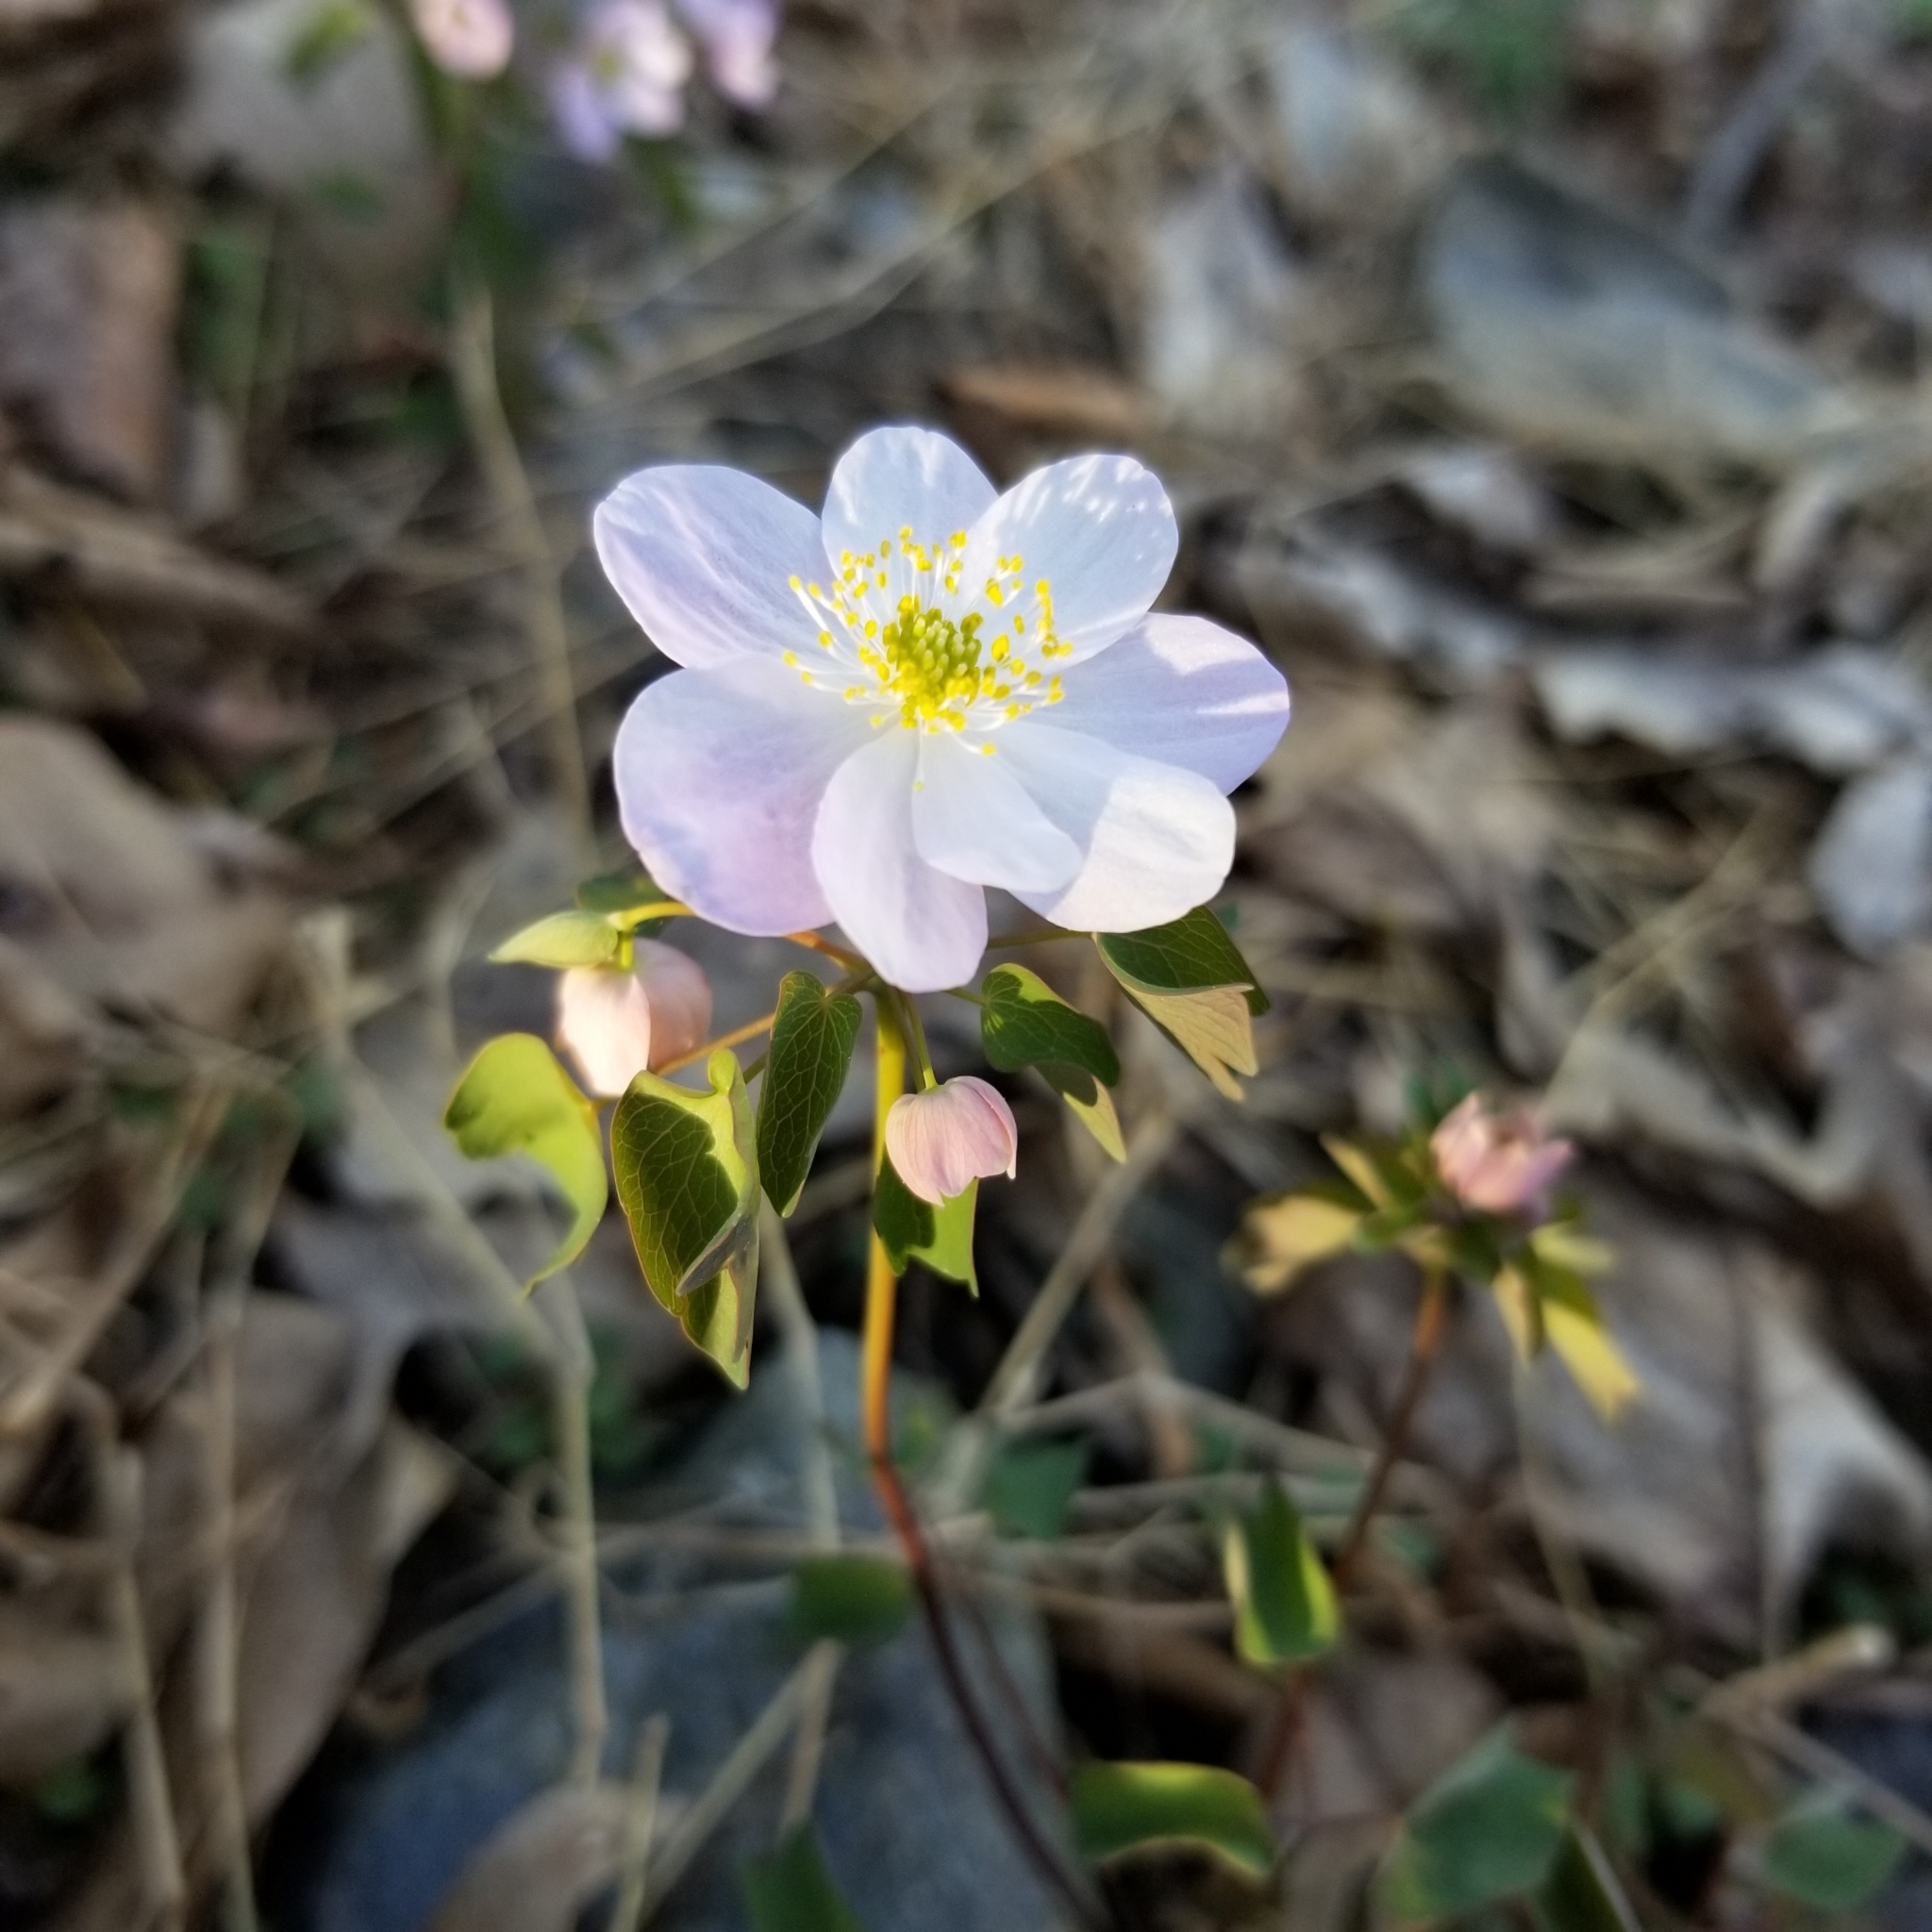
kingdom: Plantae
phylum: Tracheophyta
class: Magnoliopsida
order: Ranunculales
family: Ranunculaceae
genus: Thalictrum
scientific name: Thalictrum thalictroides
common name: Rue-anemone
